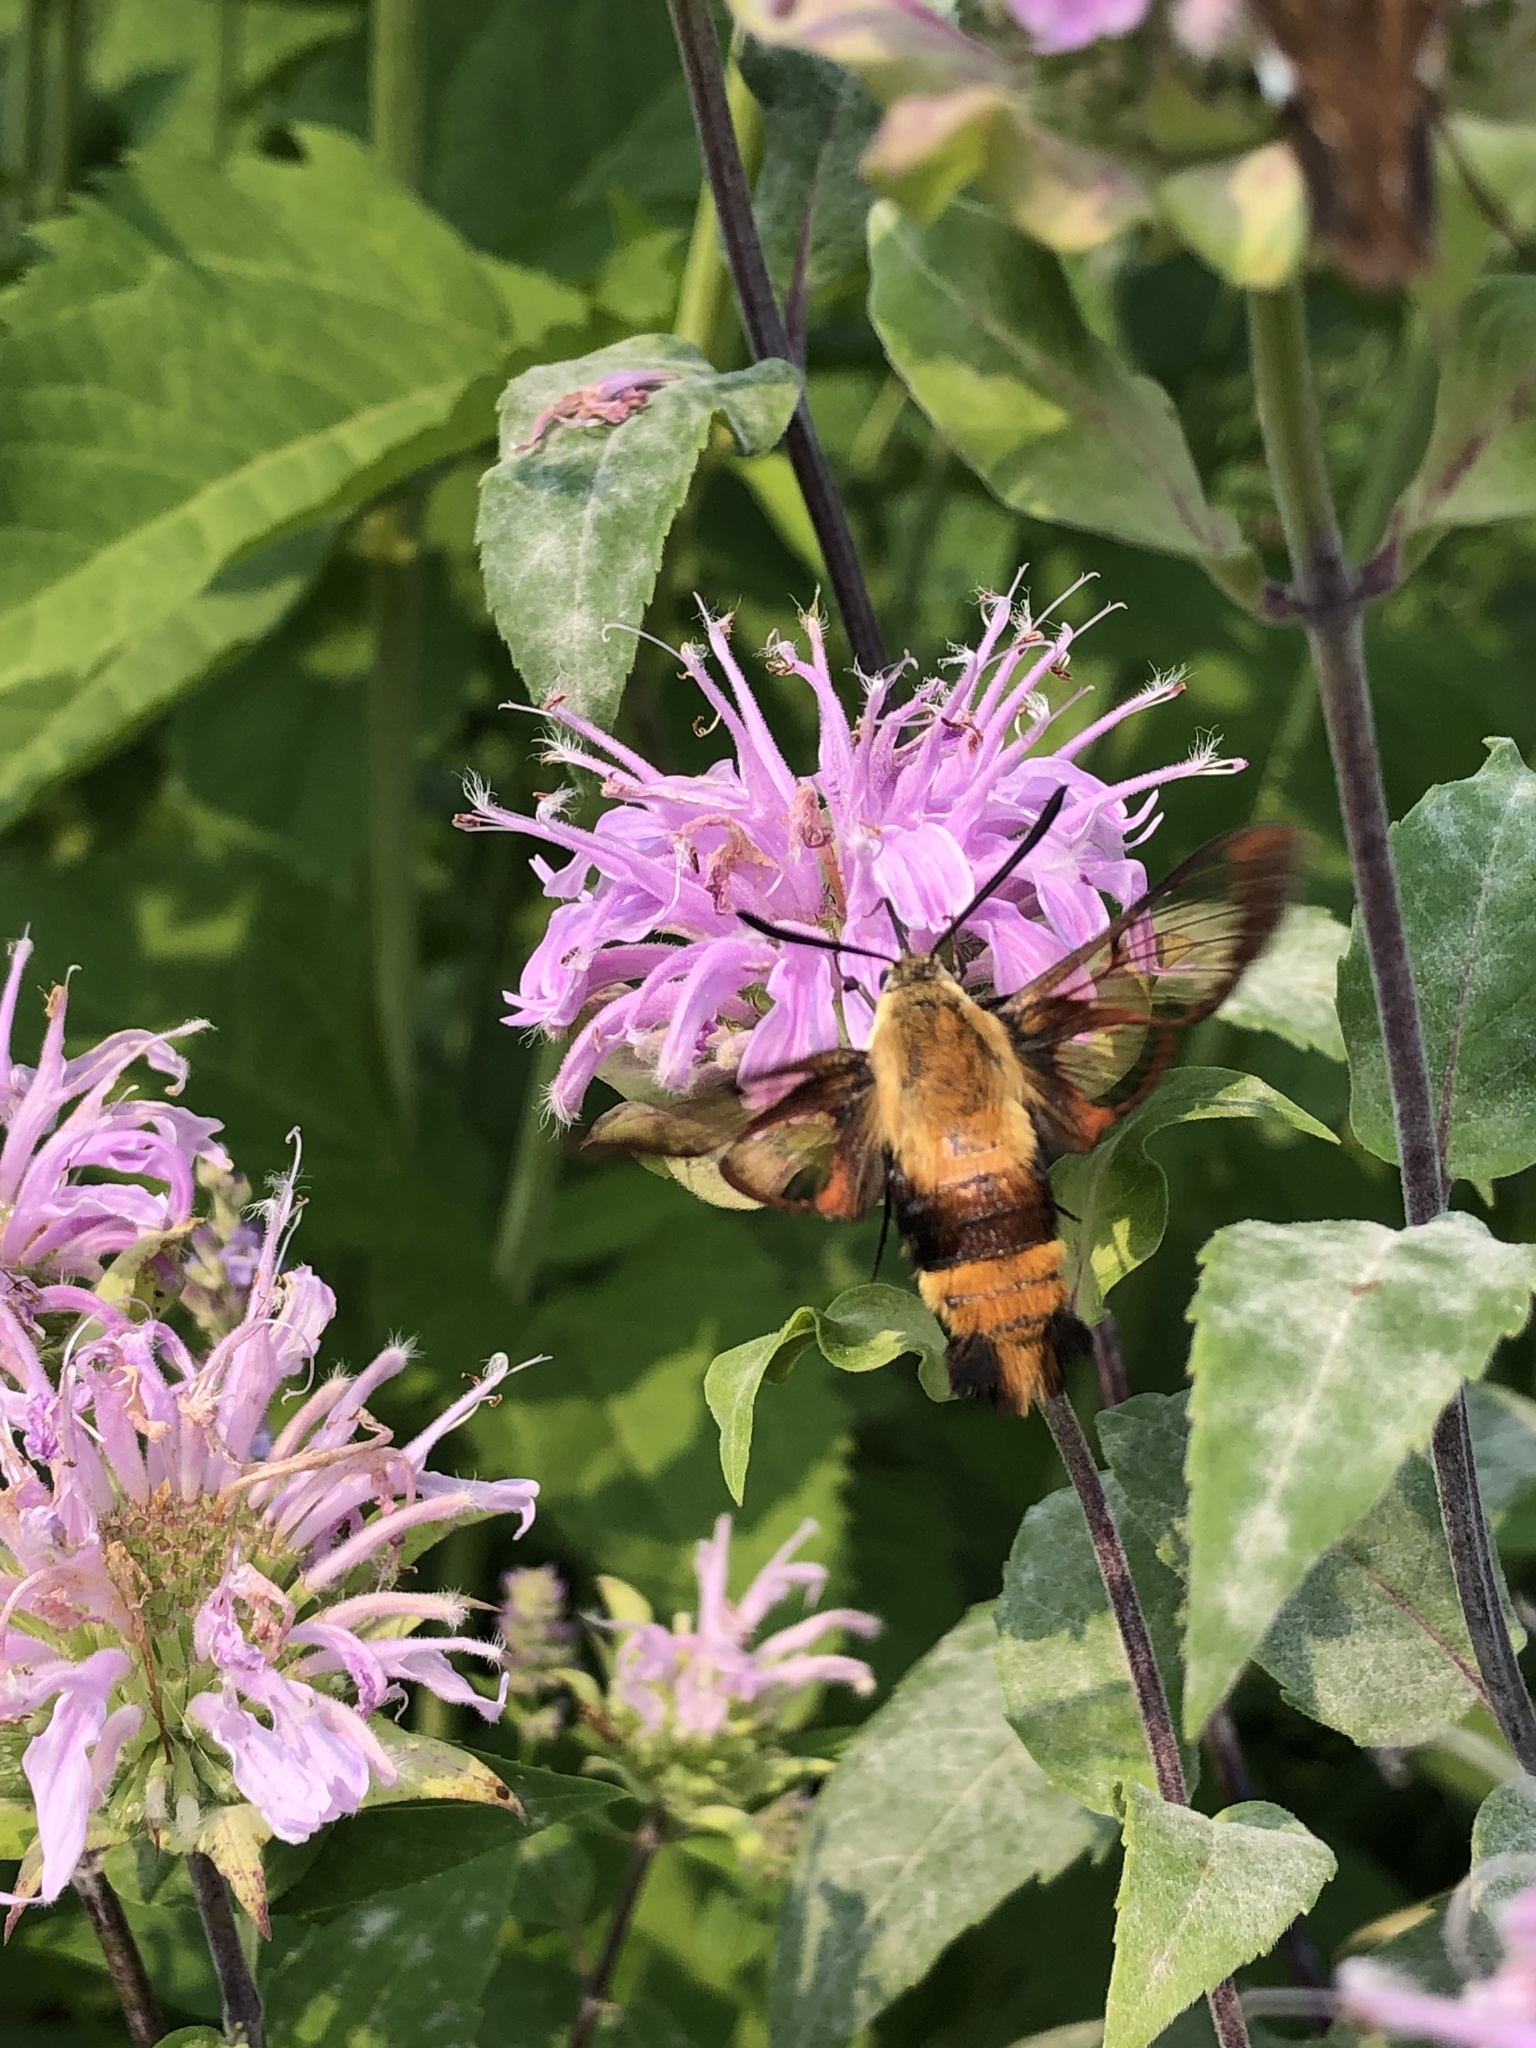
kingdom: Animalia
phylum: Arthropoda
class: Insecta
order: Lepidoptera
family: Sphingidae
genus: Hemaris
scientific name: Hemaris diffinis
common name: Bumblebee moth
